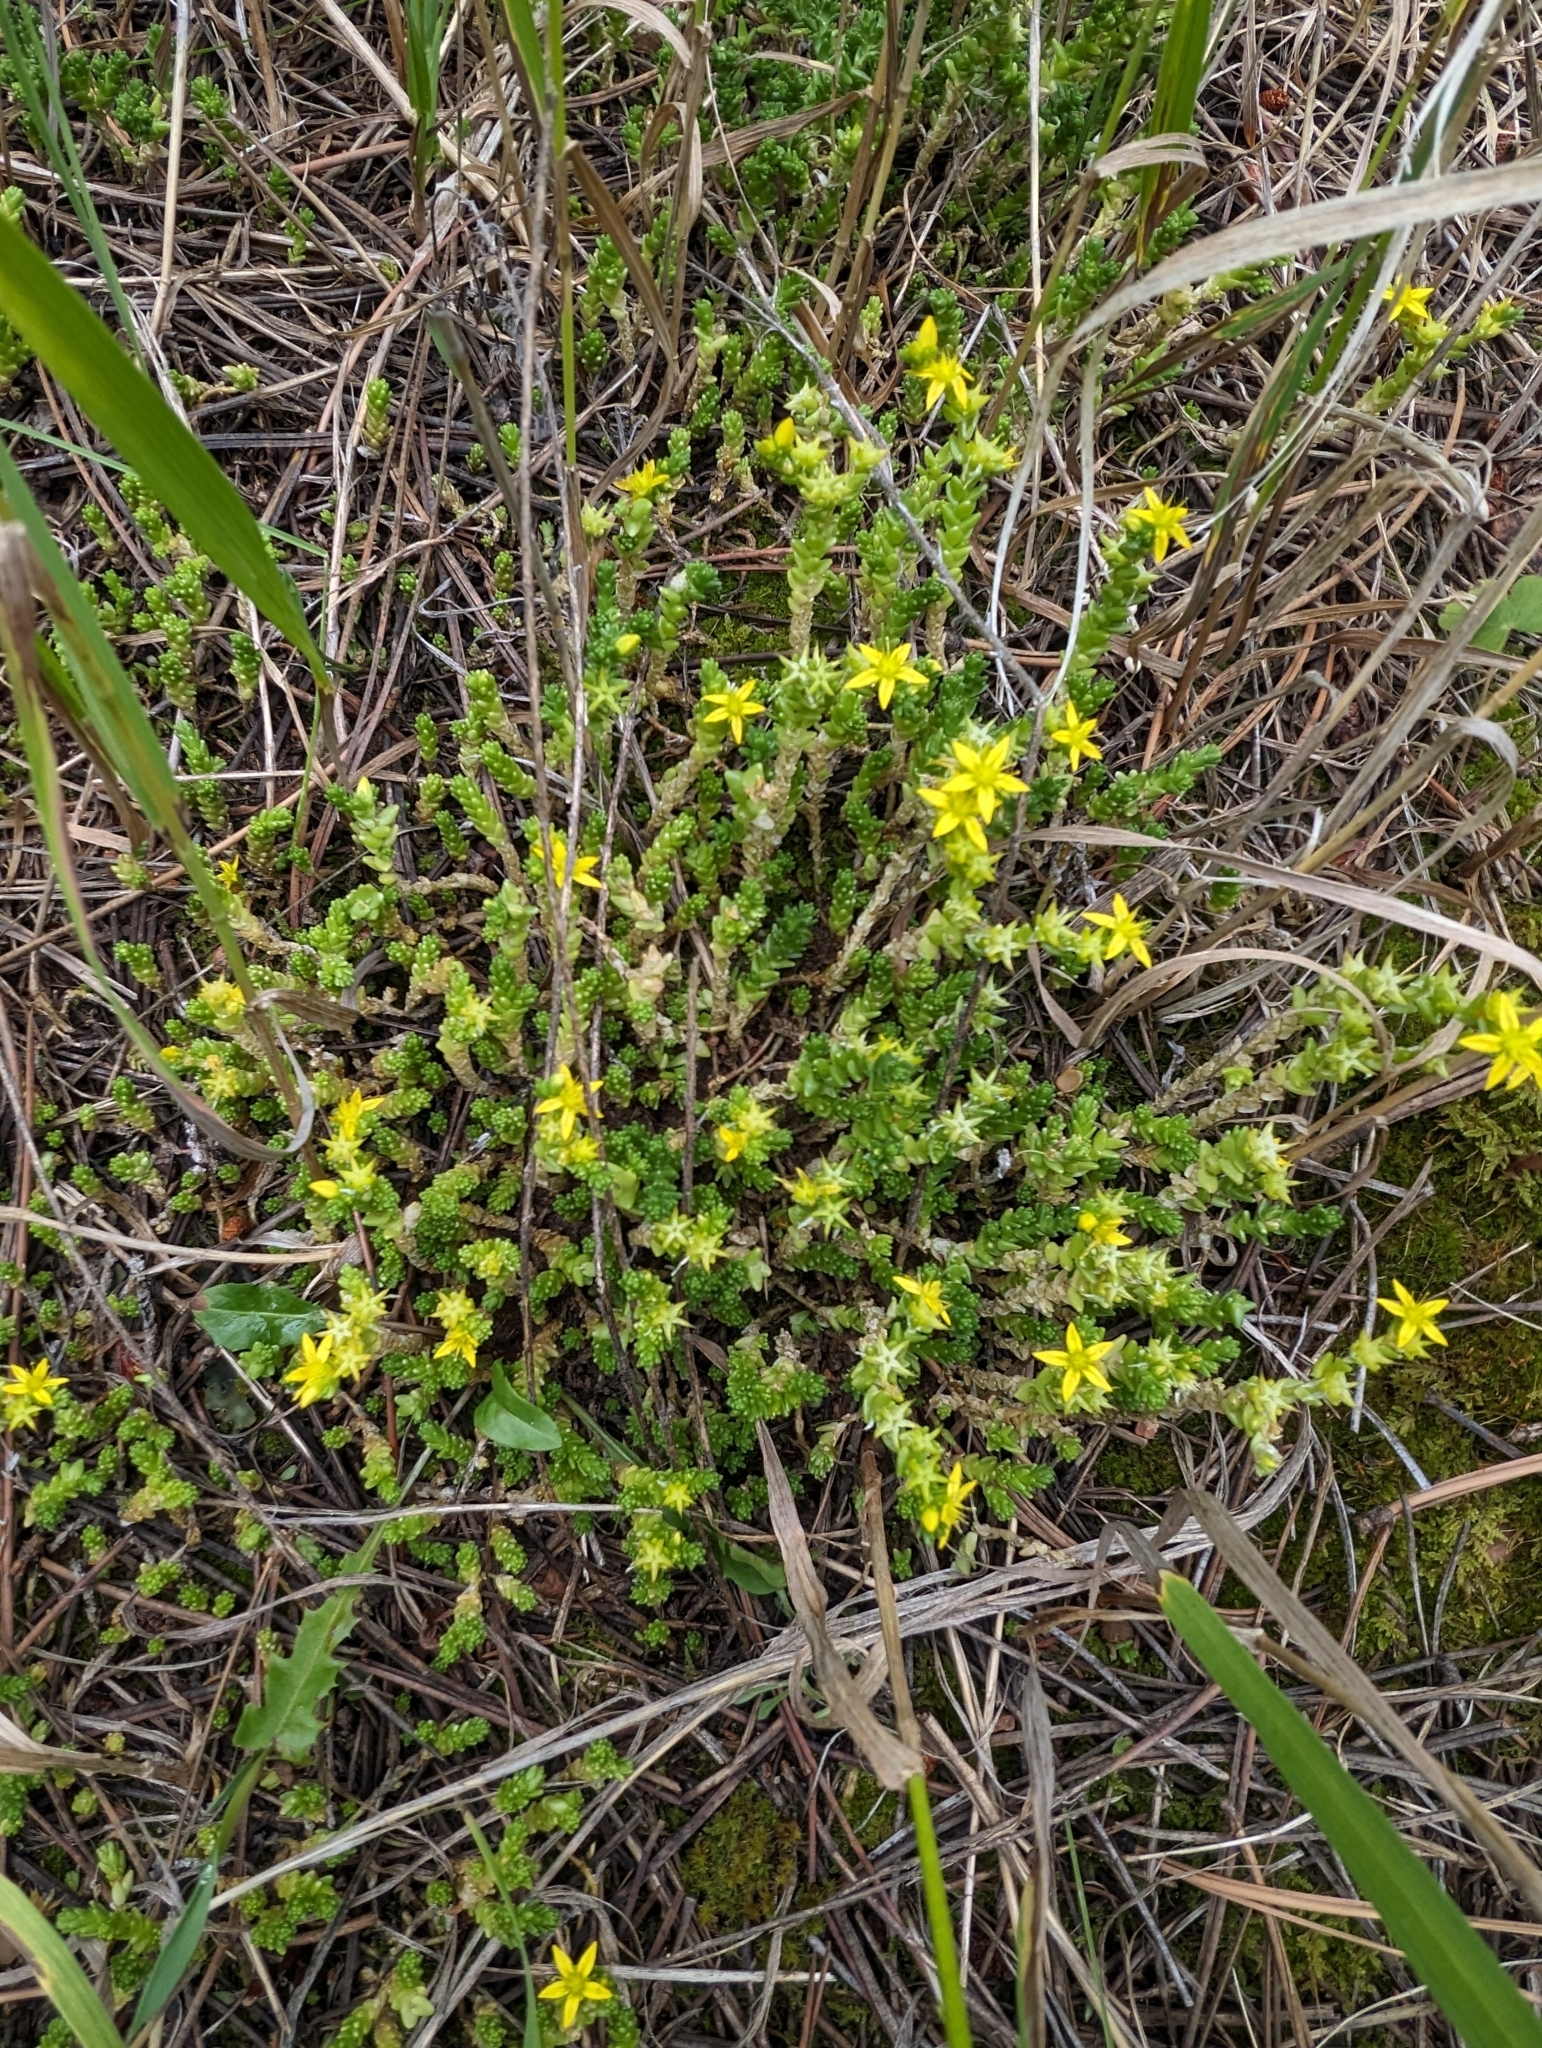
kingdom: Plantae
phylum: Tracheophyta
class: Magnoliopsida
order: Saxifragales
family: Crassulaceae
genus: Sedum
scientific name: Sedum acre
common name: Biting stonecrop
